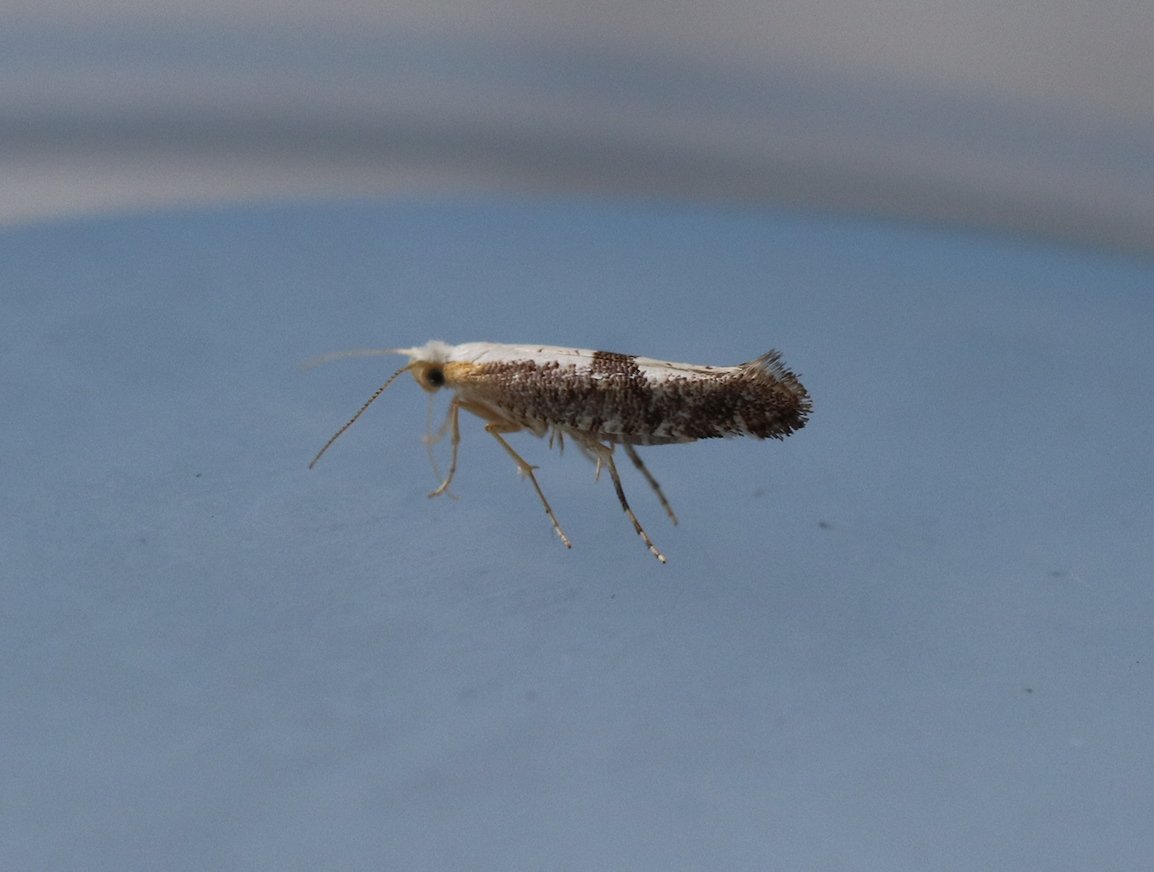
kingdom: Animalia
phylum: Arthropoda
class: Insecta
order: Lepidoptera
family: Argyresthiidae
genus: Argyresthia
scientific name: Argyresthia spinosella
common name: Blackthorn argent
